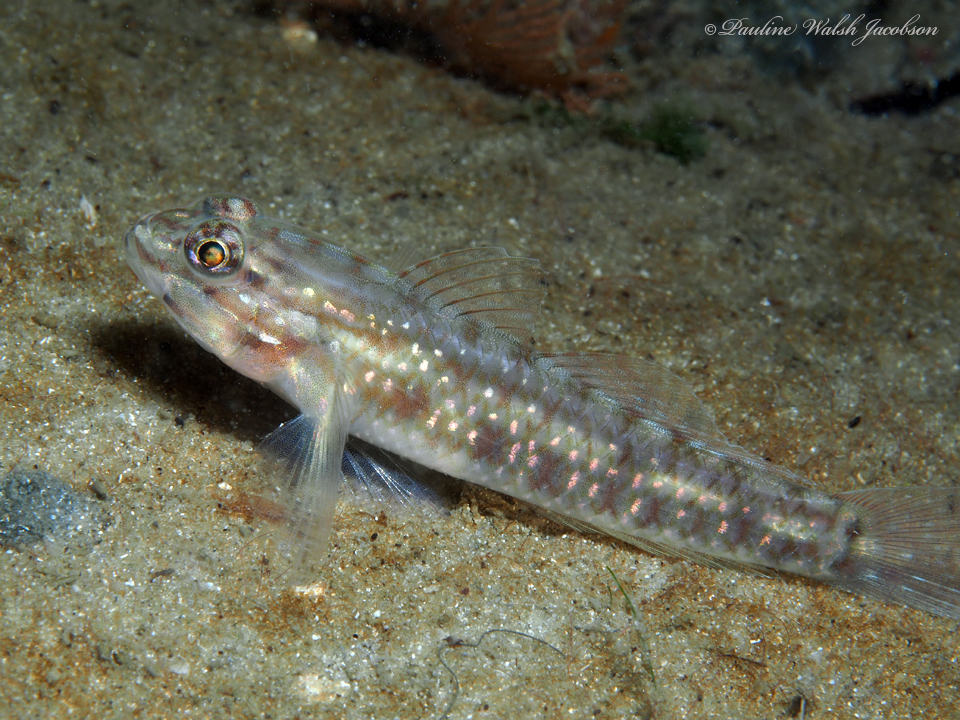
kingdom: Animalia
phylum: Chordata
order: Perciformes
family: Gobiidae
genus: Coryphopterus
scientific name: Coryphopterus glaucofraenum
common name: Bridled goby
